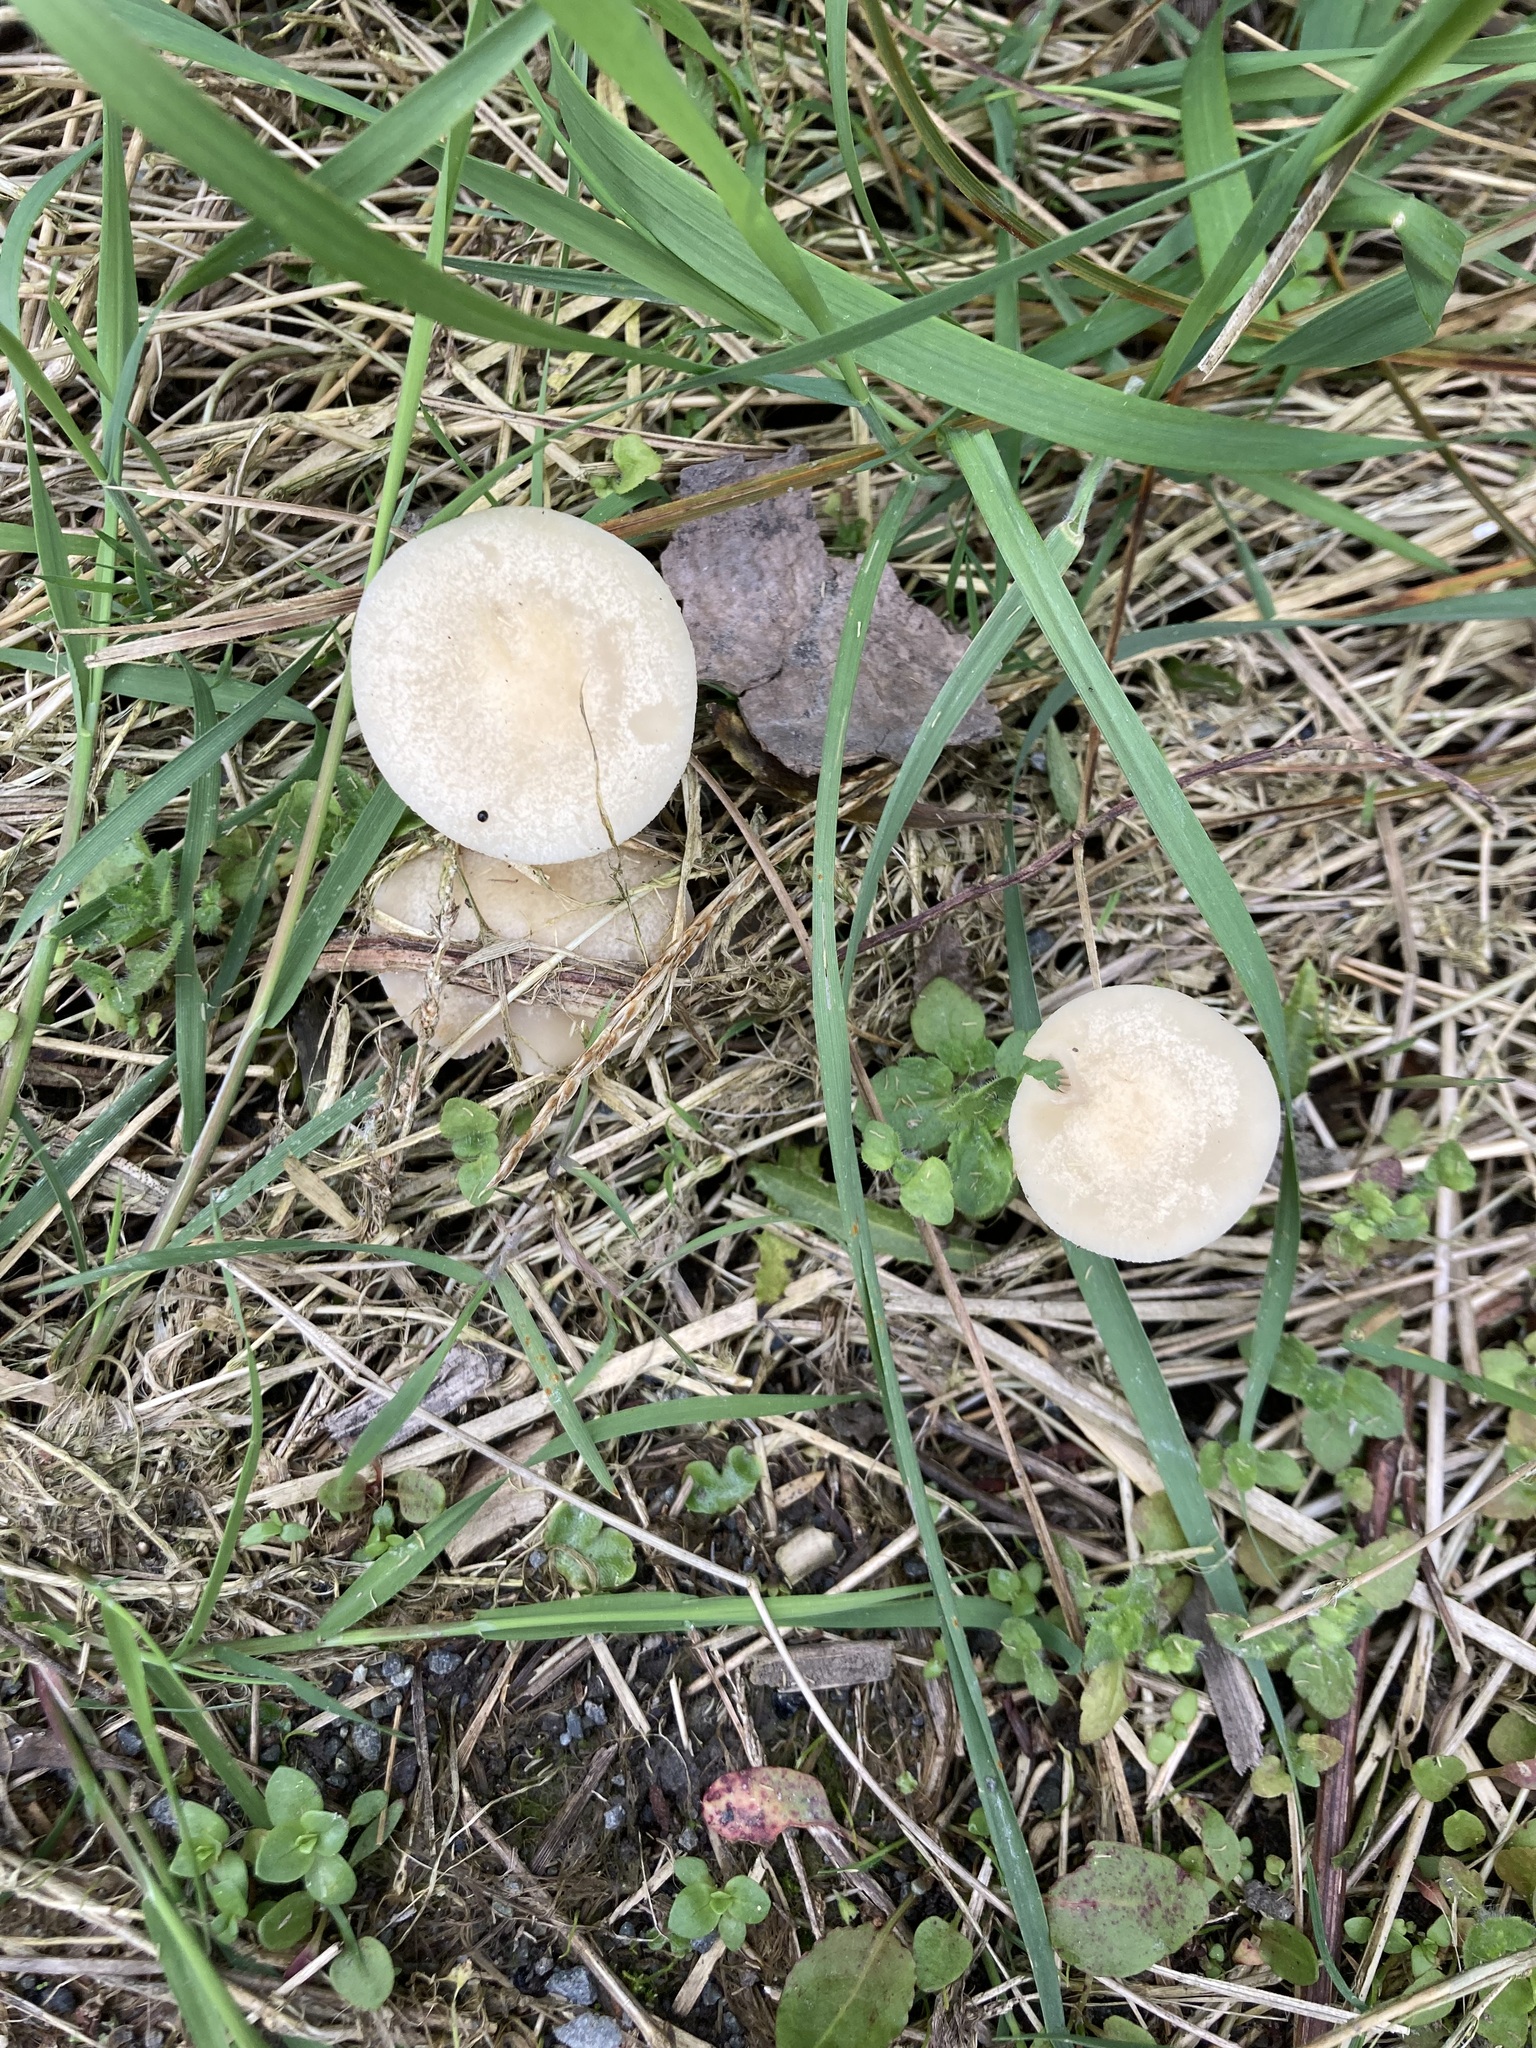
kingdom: Fungi
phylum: Basidiomycota
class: Agaricomycetes
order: Agaricales
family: Strophariaceae
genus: Agrocybe
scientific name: Agrocybe praecox
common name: Spring fieldcap
